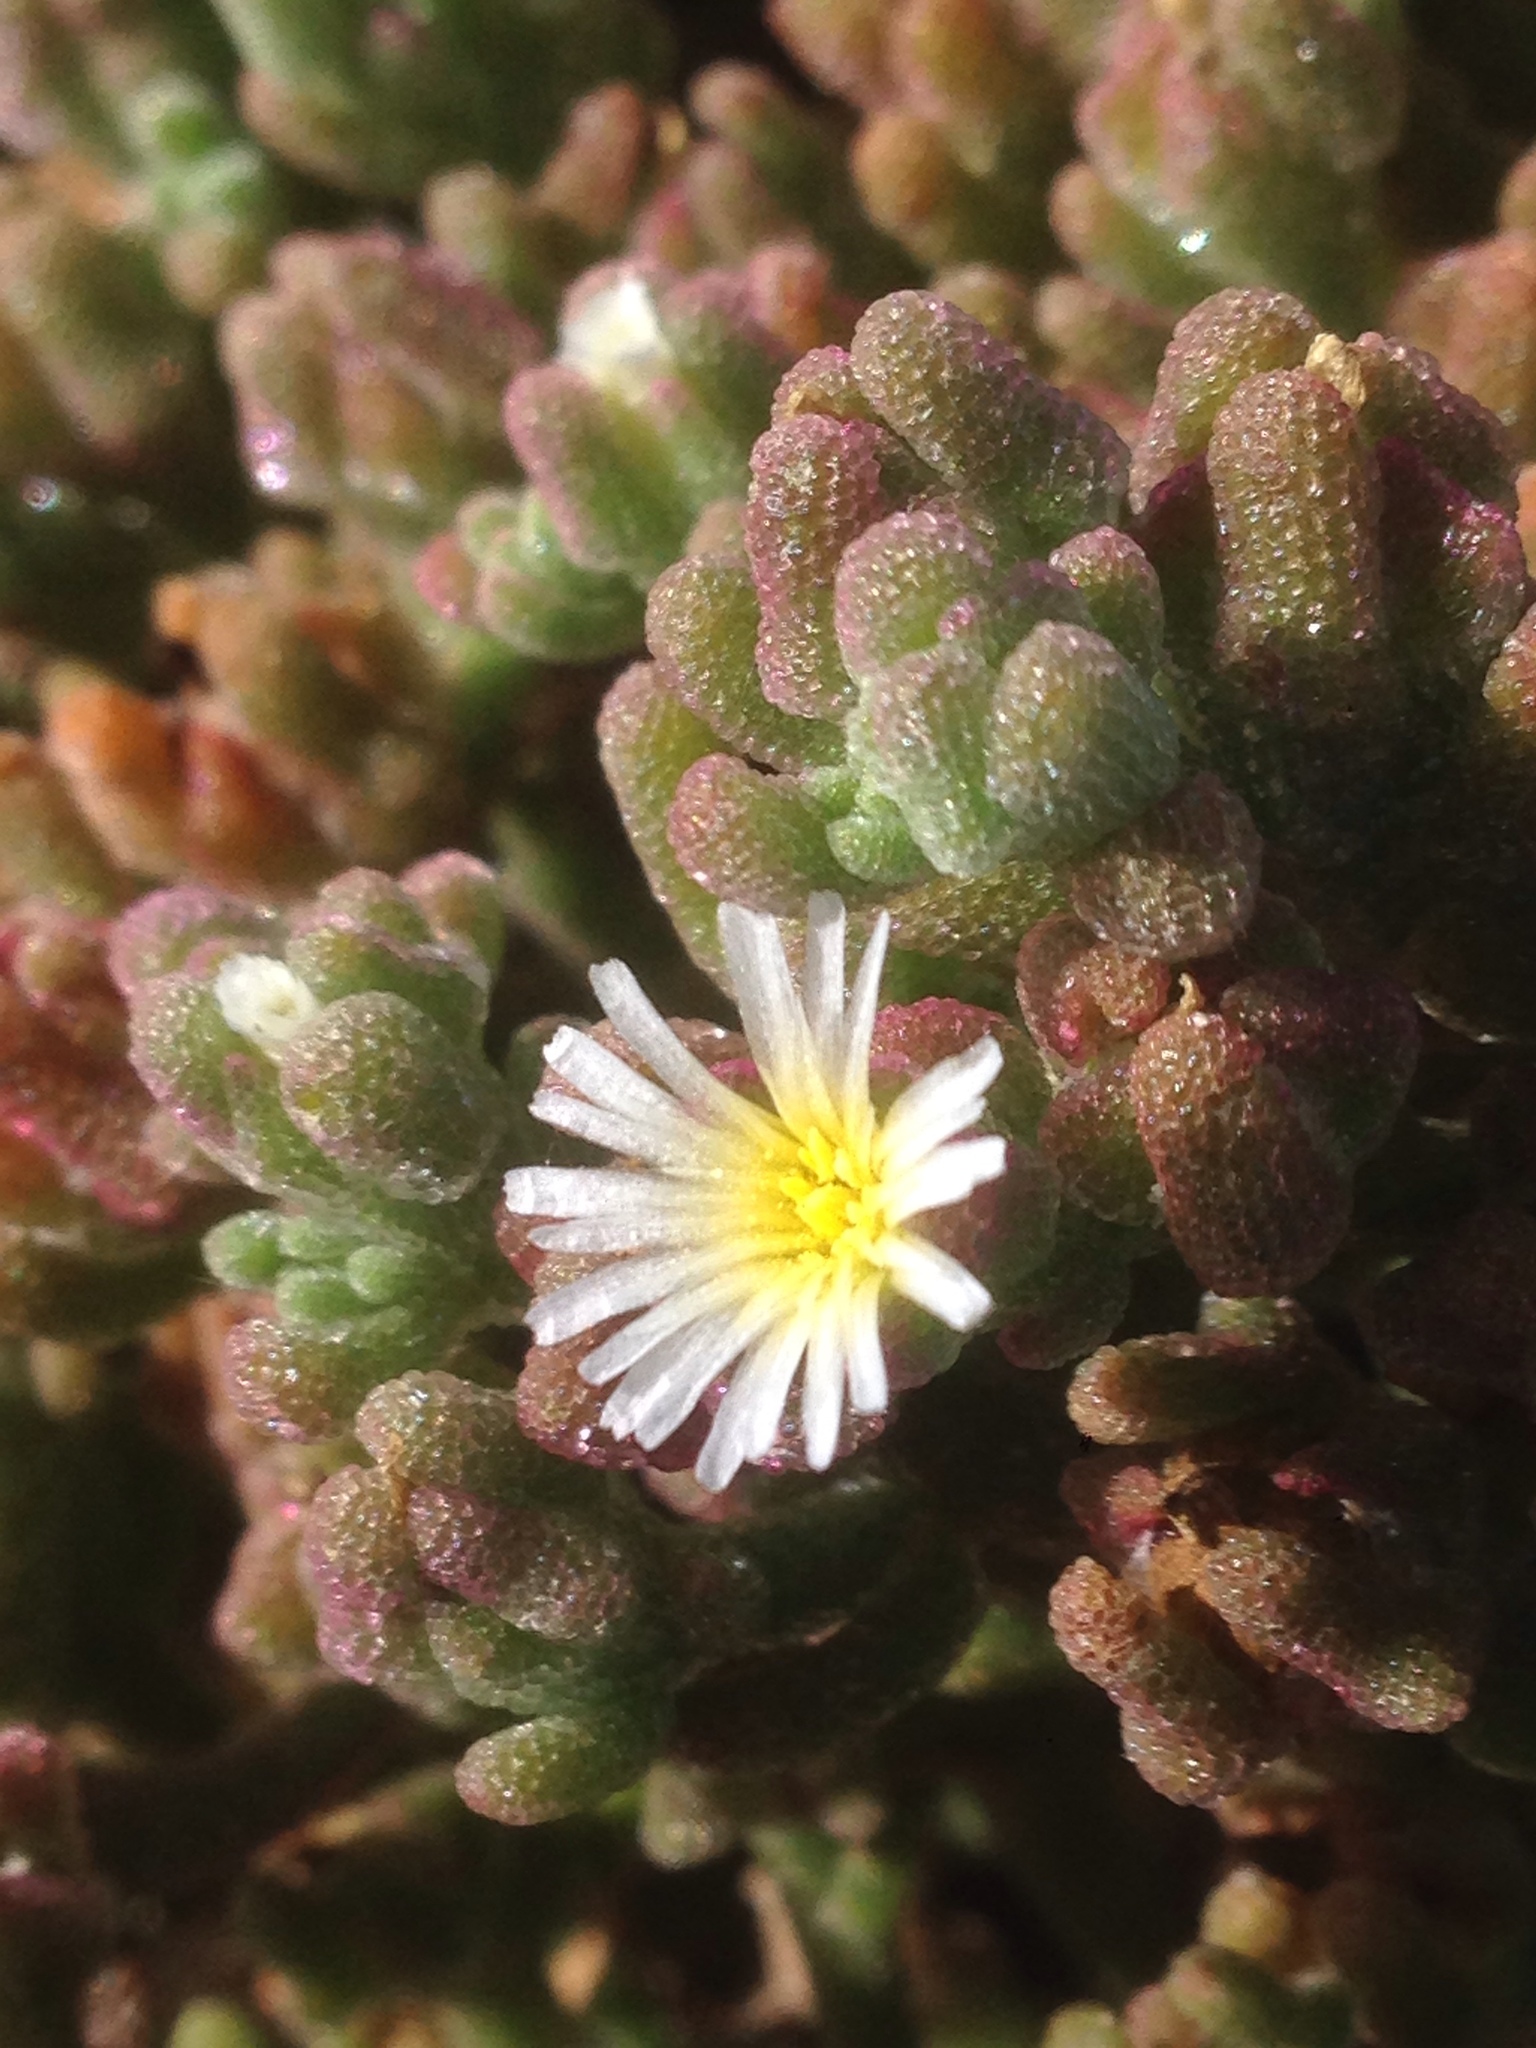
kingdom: Plantae
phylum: Tracheophyta
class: Magnoliopsida
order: Caryophyllales
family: Aizoaceae
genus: Mesembryanthemum
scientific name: Mesembryanthemum nodiflorum
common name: Slenderleaf iceplant
